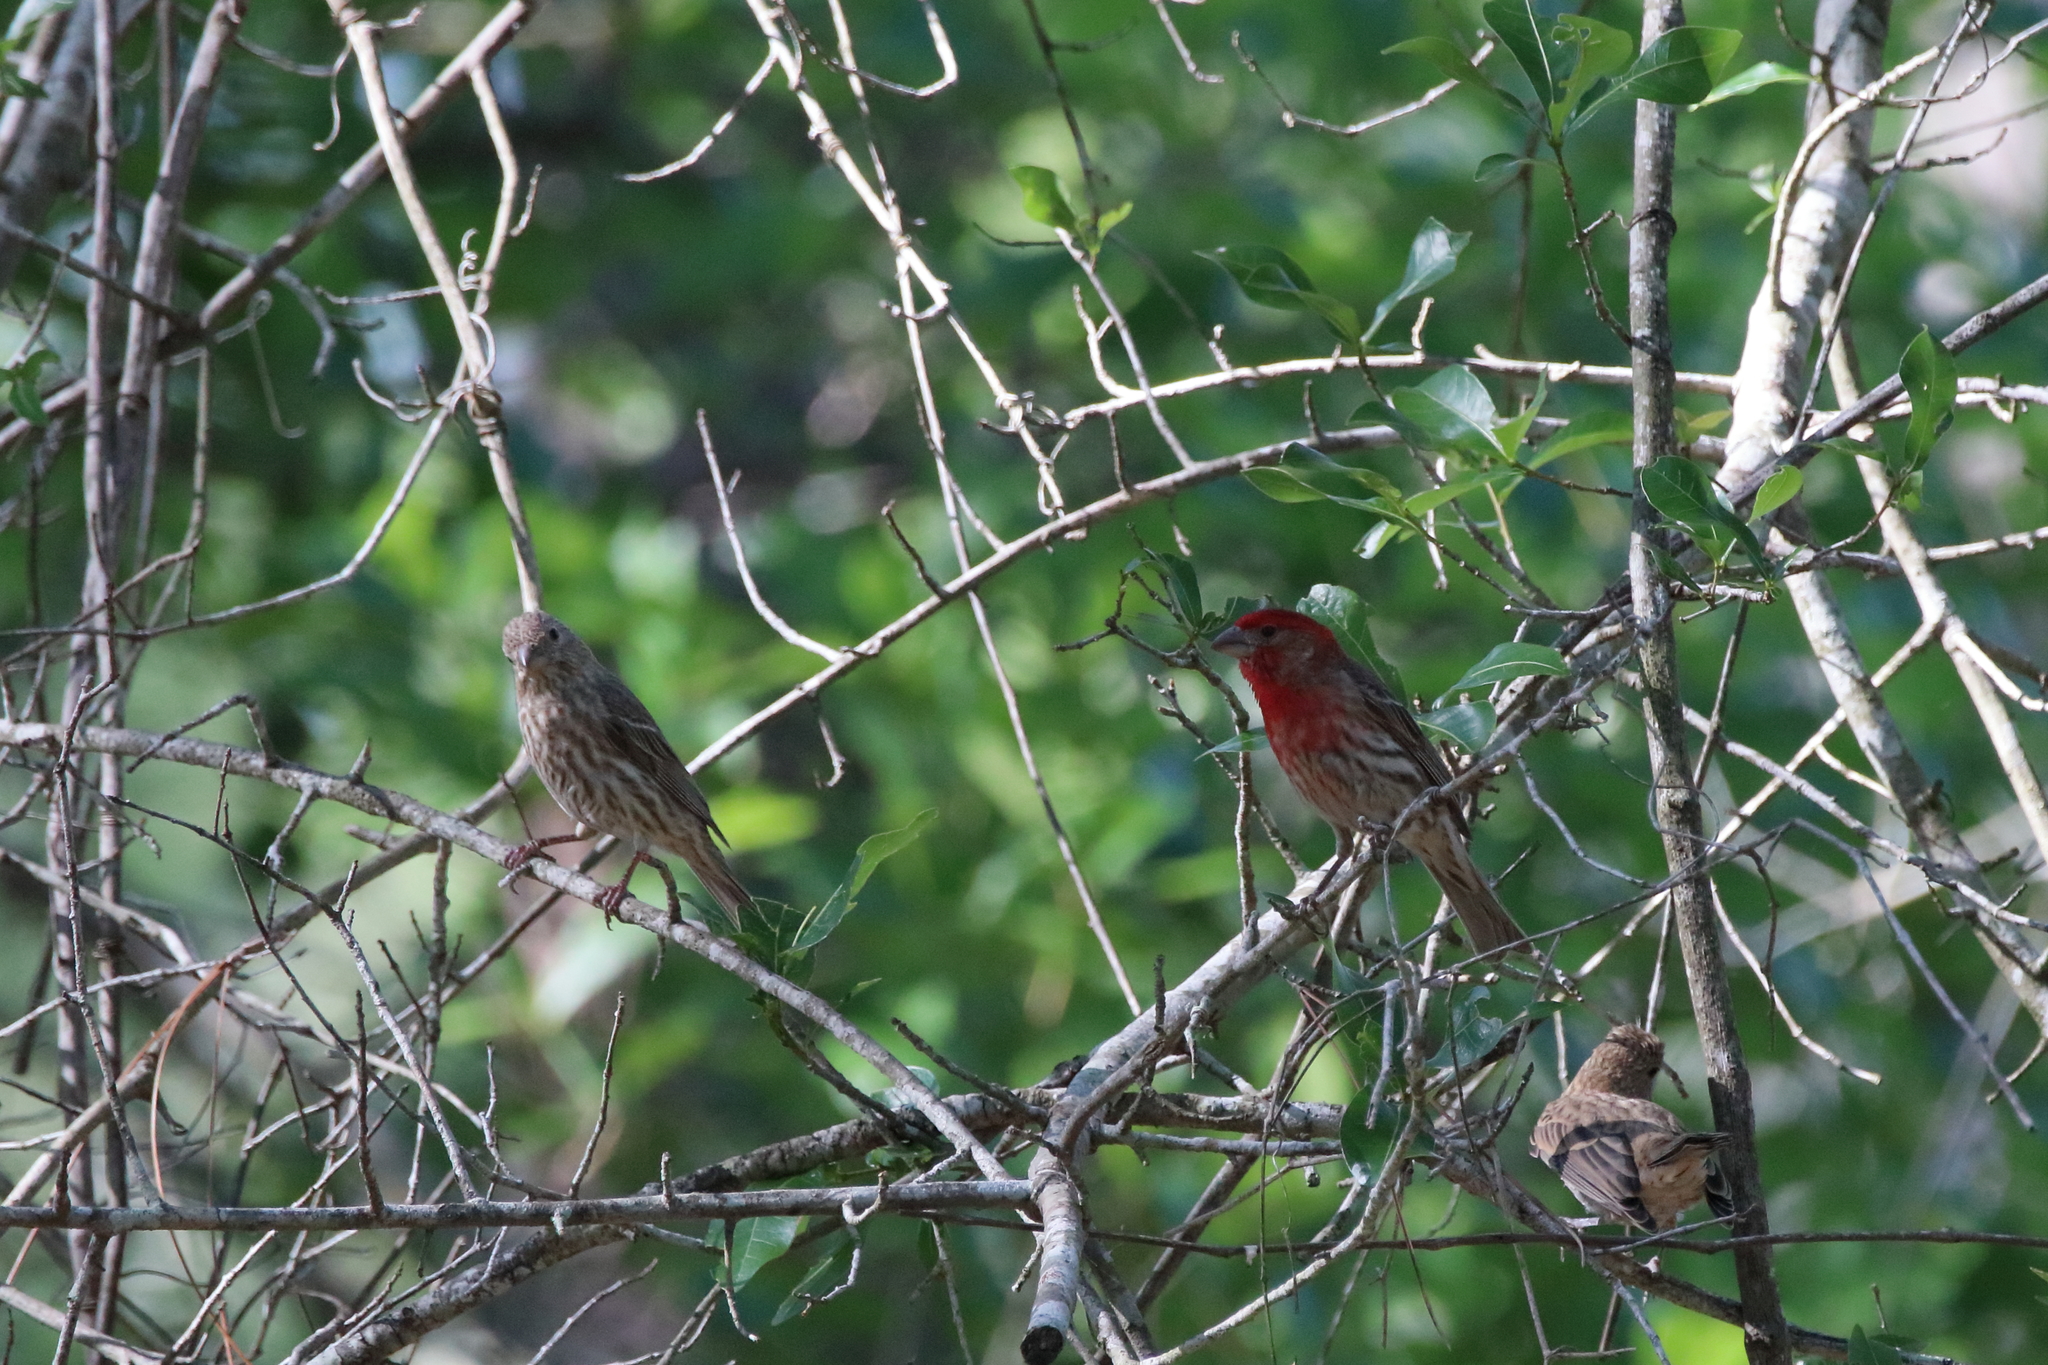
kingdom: Animalia
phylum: Chordata
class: Aves
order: Passeriformes
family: Fringillidae
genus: Haemorhous
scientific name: Haemorhous mexicanus
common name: House finch
